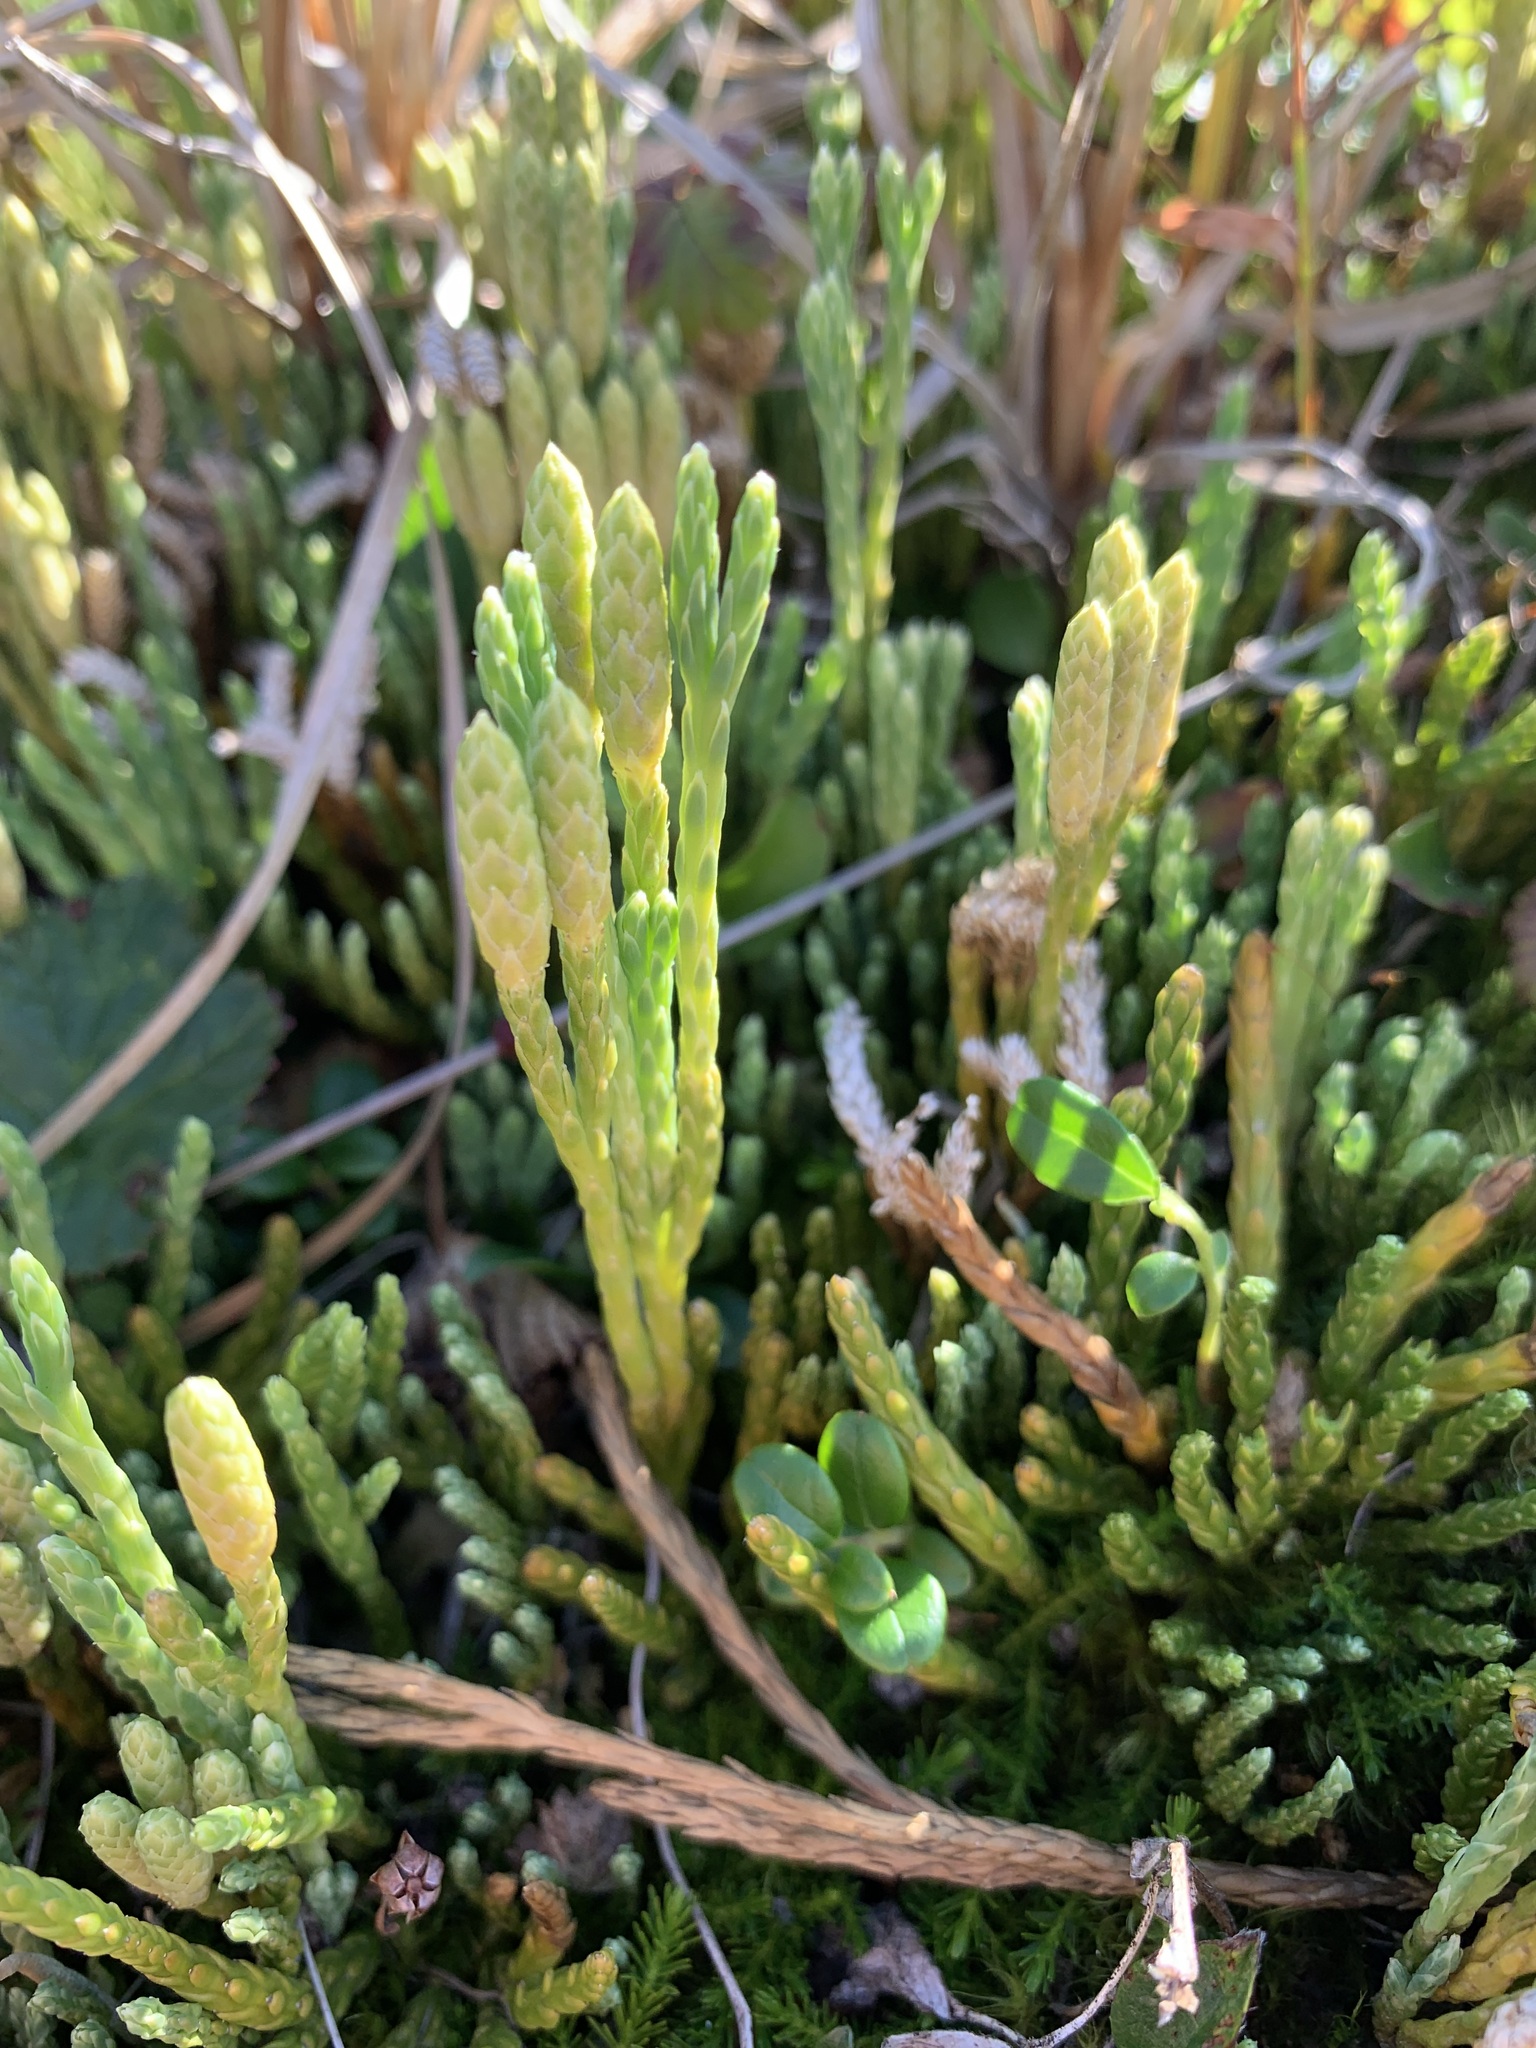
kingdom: Plantae
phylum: Tracheophyta
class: Lycopodiopsida
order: Lycopodiales
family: Lycopodiaceae
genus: Diphasiastrum
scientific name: Diphasiastrum alpinum
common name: Alpine clubmoss
